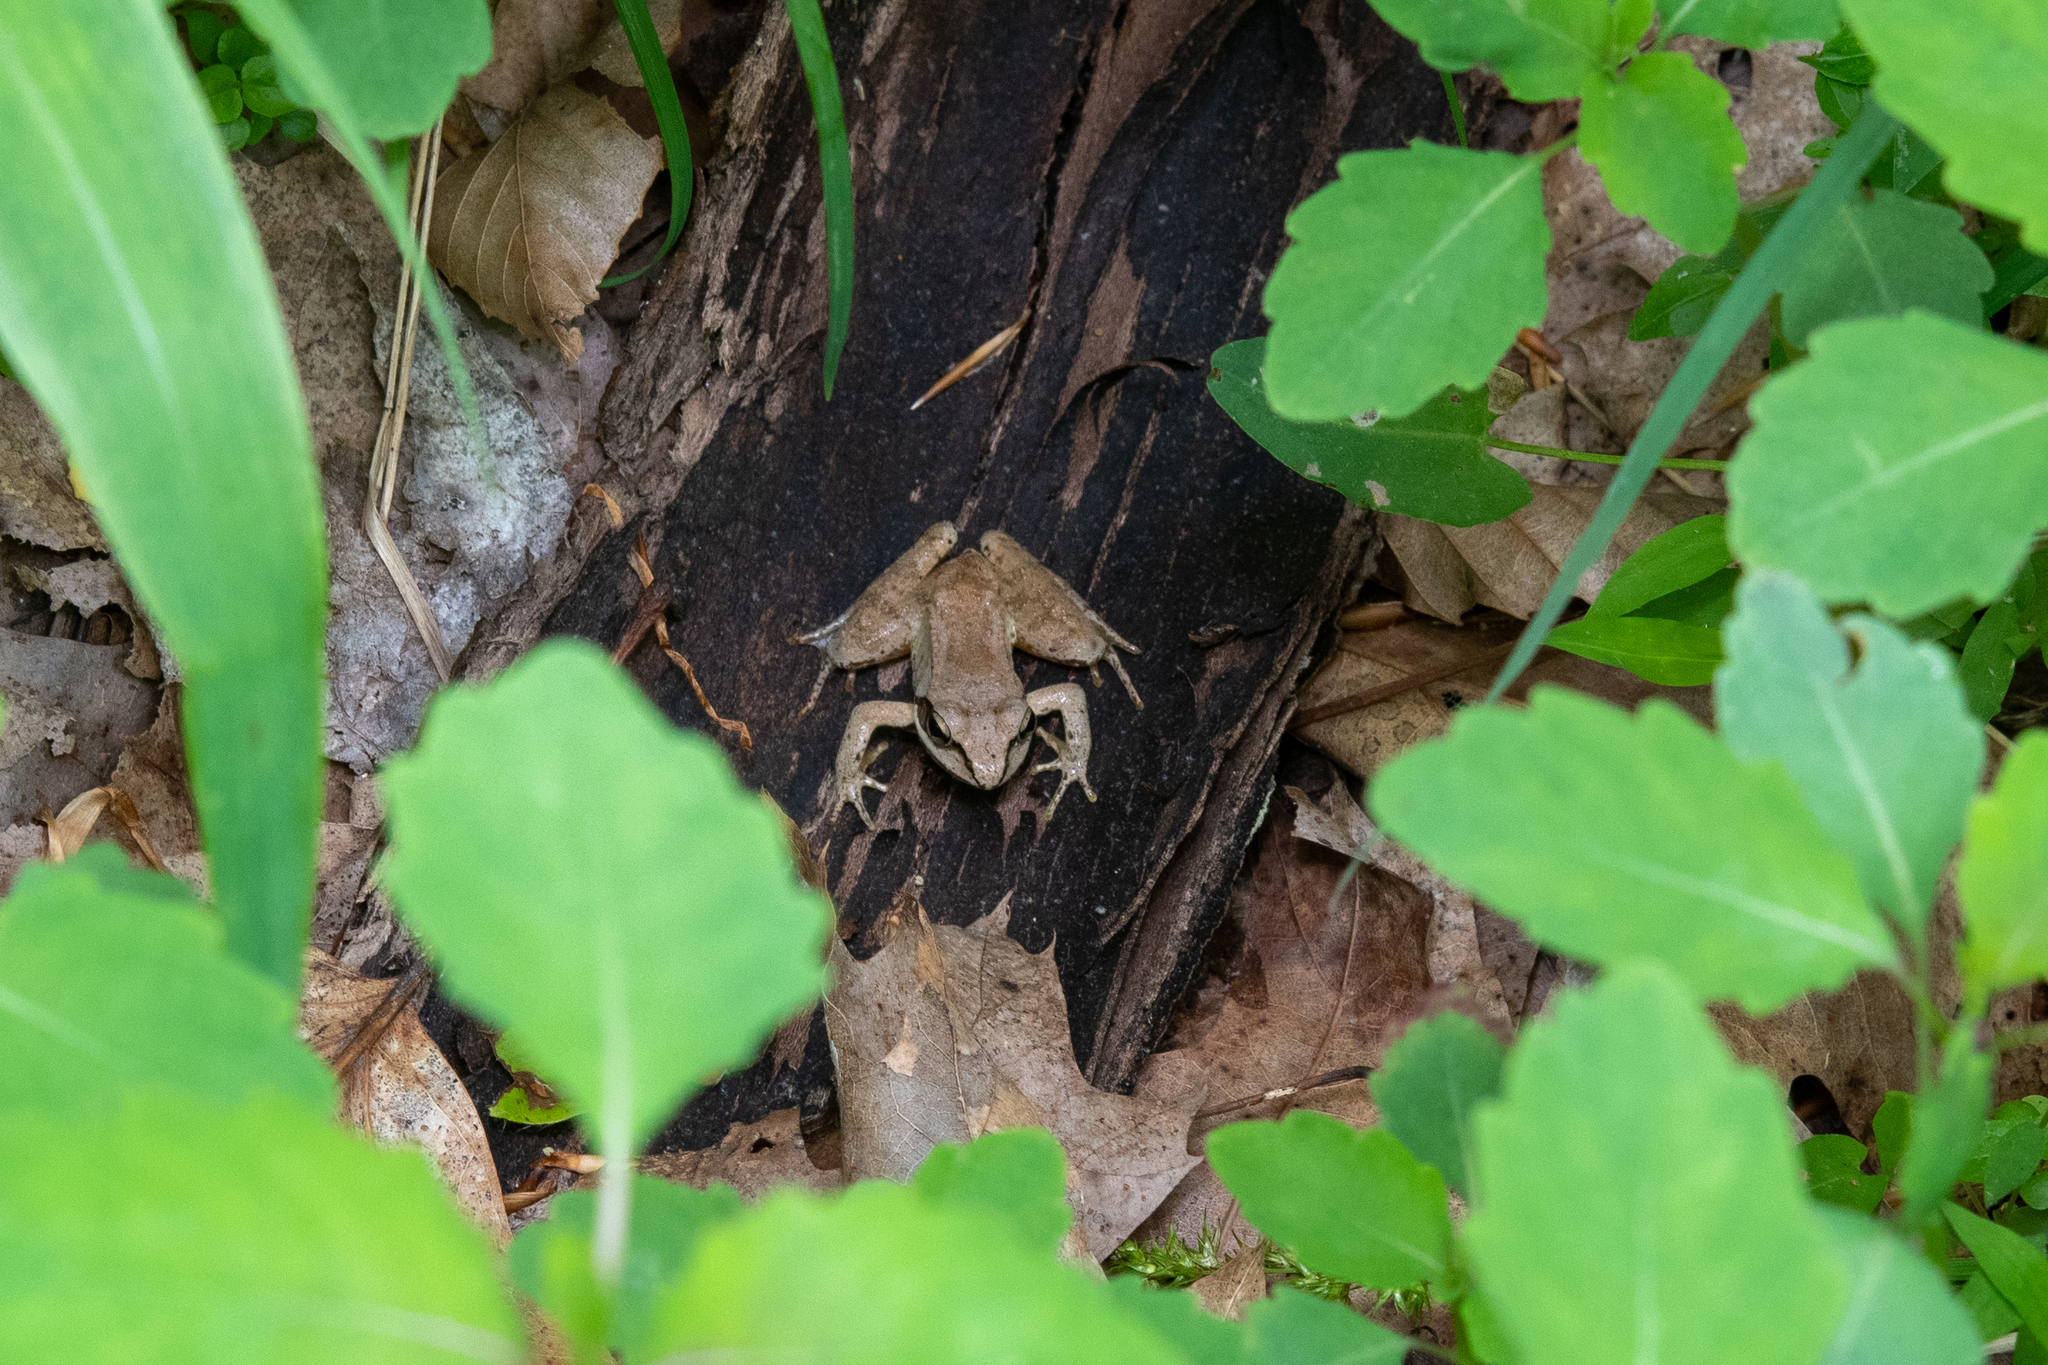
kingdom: Animalia
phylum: Chordata
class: Amphibia
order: Anura
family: Ranidae
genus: Lithobates
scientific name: Lithobates sylvaticus
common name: Wood frog
